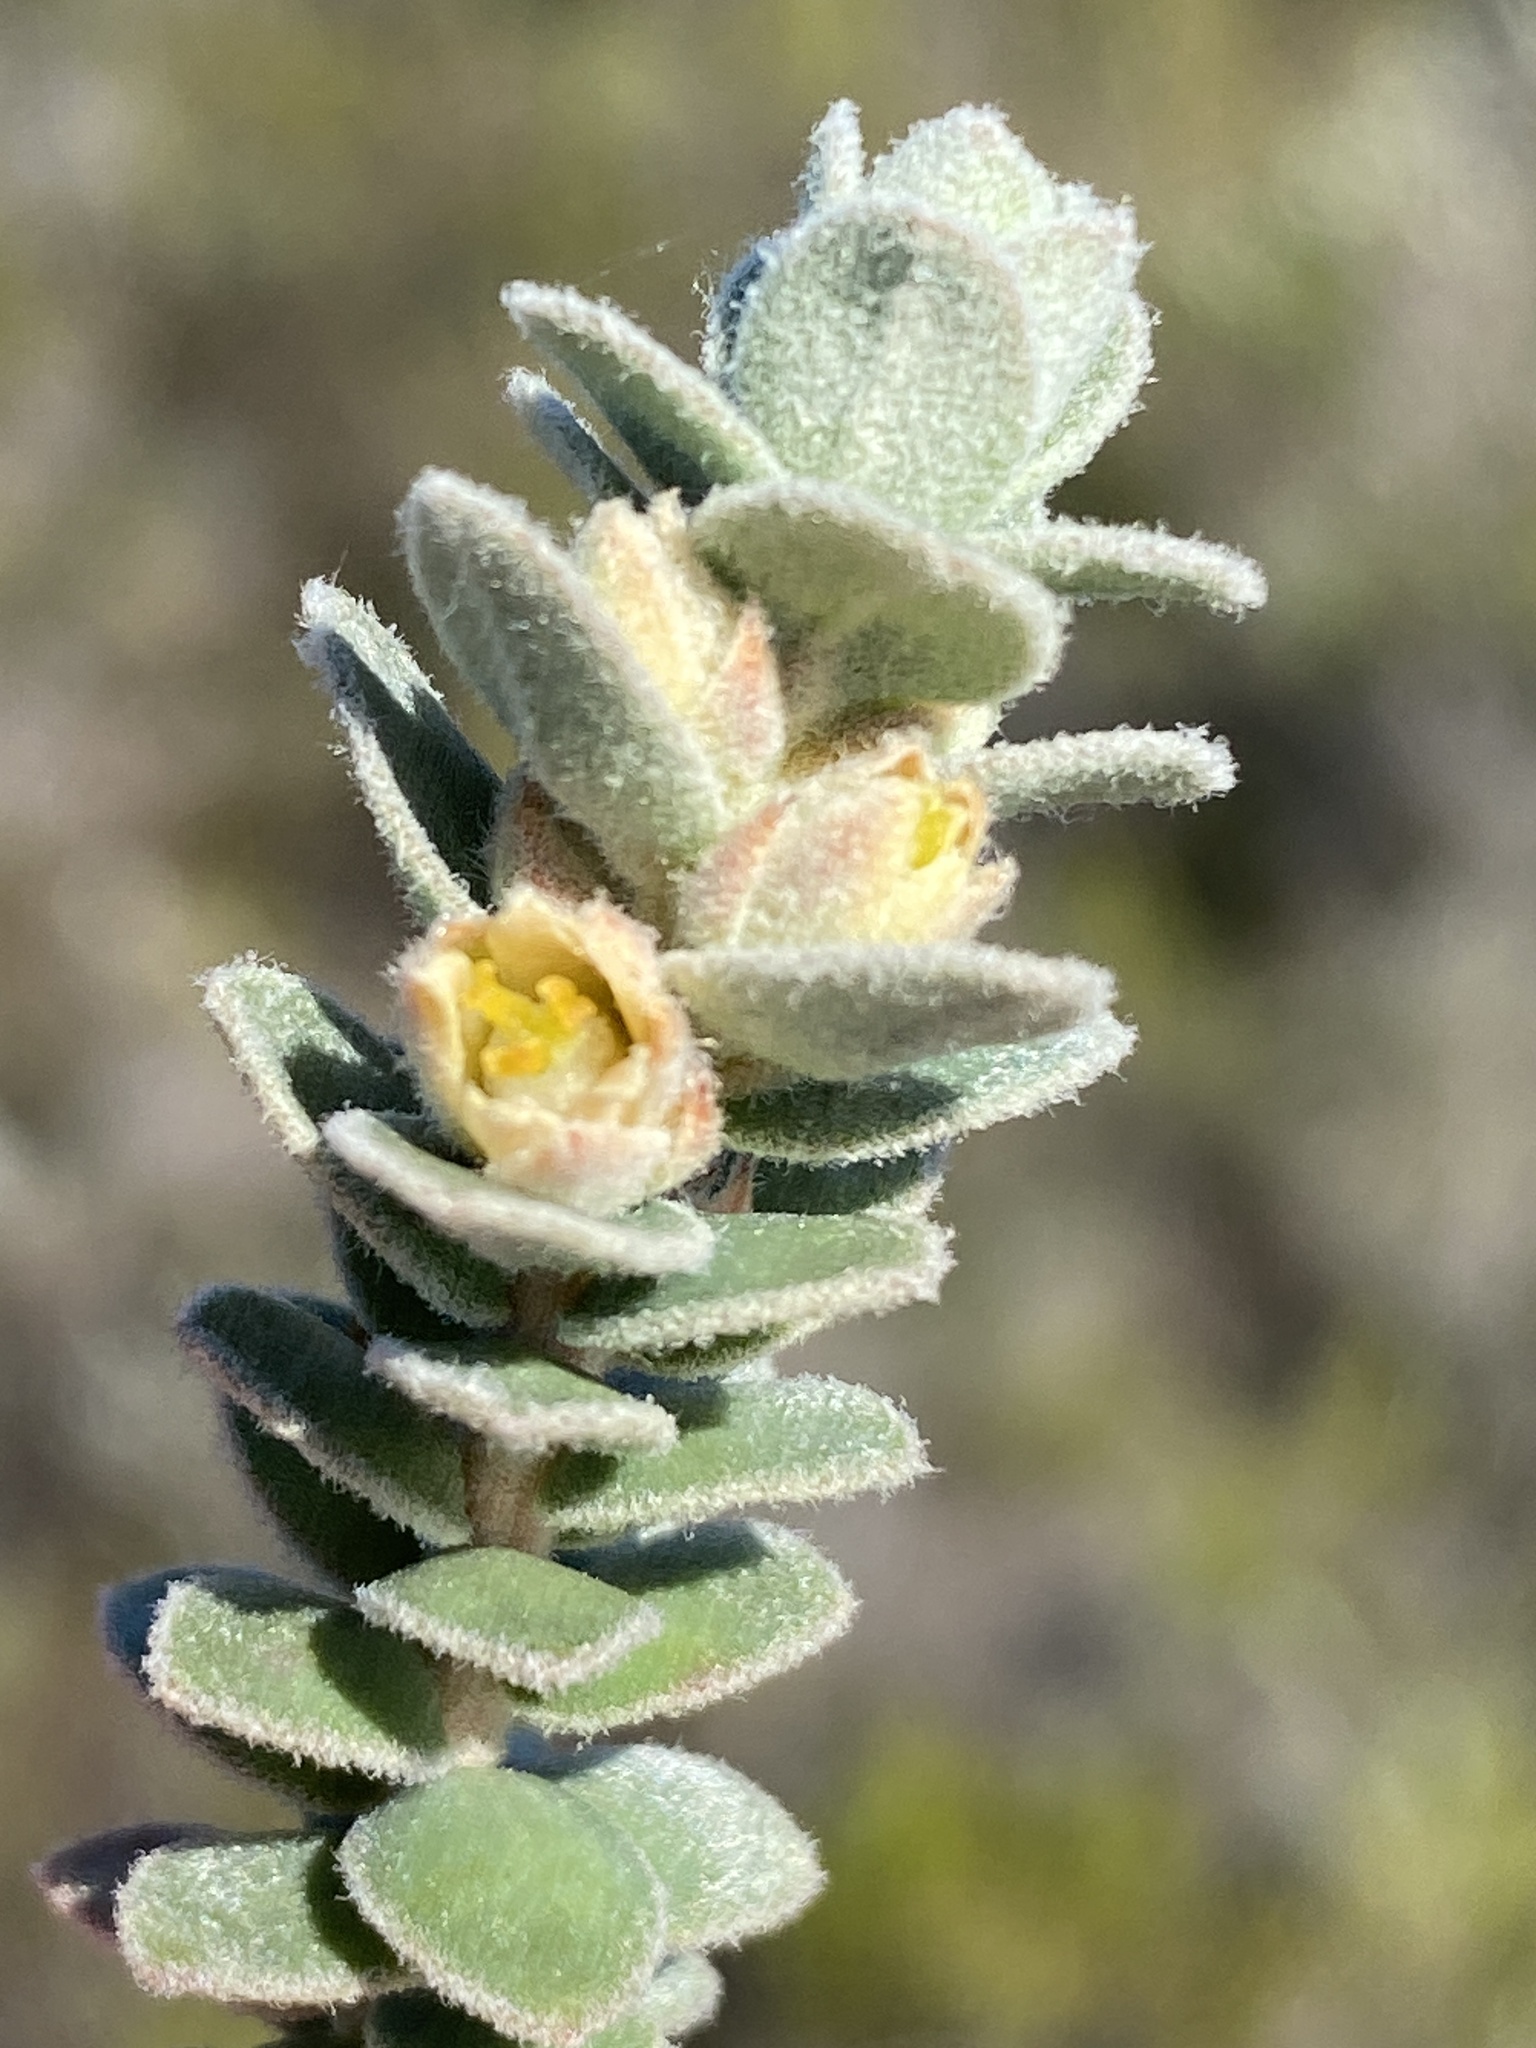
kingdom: Plantae
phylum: Tracheophyta
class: Magnoliopsida
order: Malpighiales
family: Peraceae
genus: Clutia
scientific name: Clutia tomentosa
